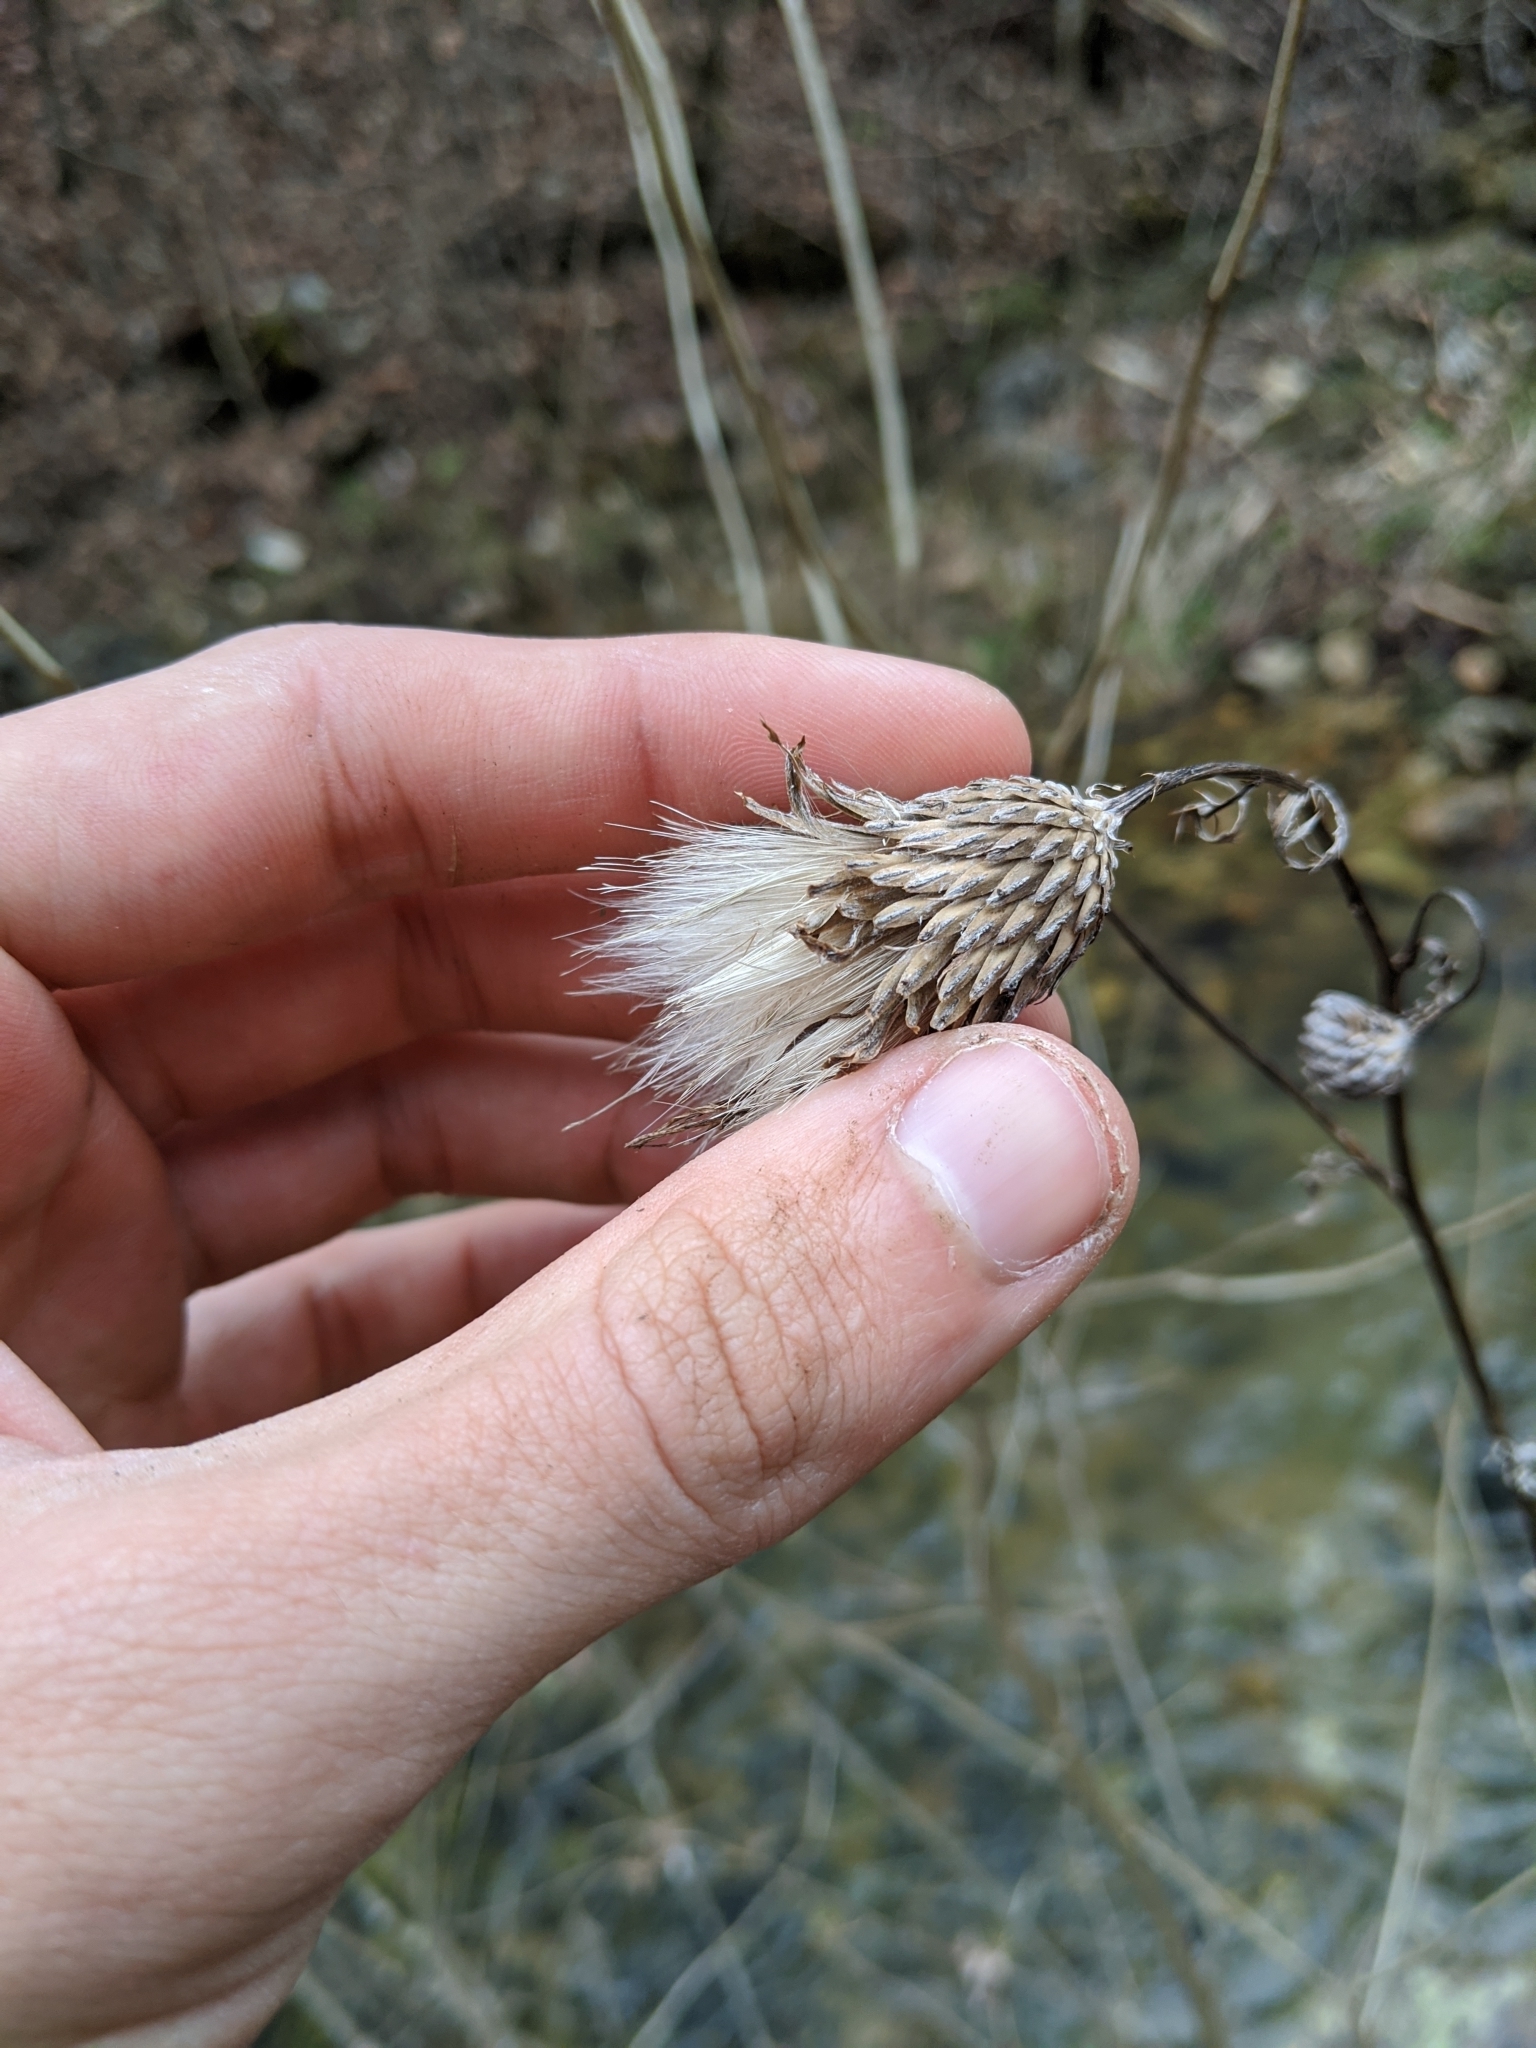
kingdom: Plantae
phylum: Tracheophyta
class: Magnoliopsida
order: Asterales
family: Asteraceae
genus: Cirsium
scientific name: Cirsium muticum
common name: Dunce-nettle
